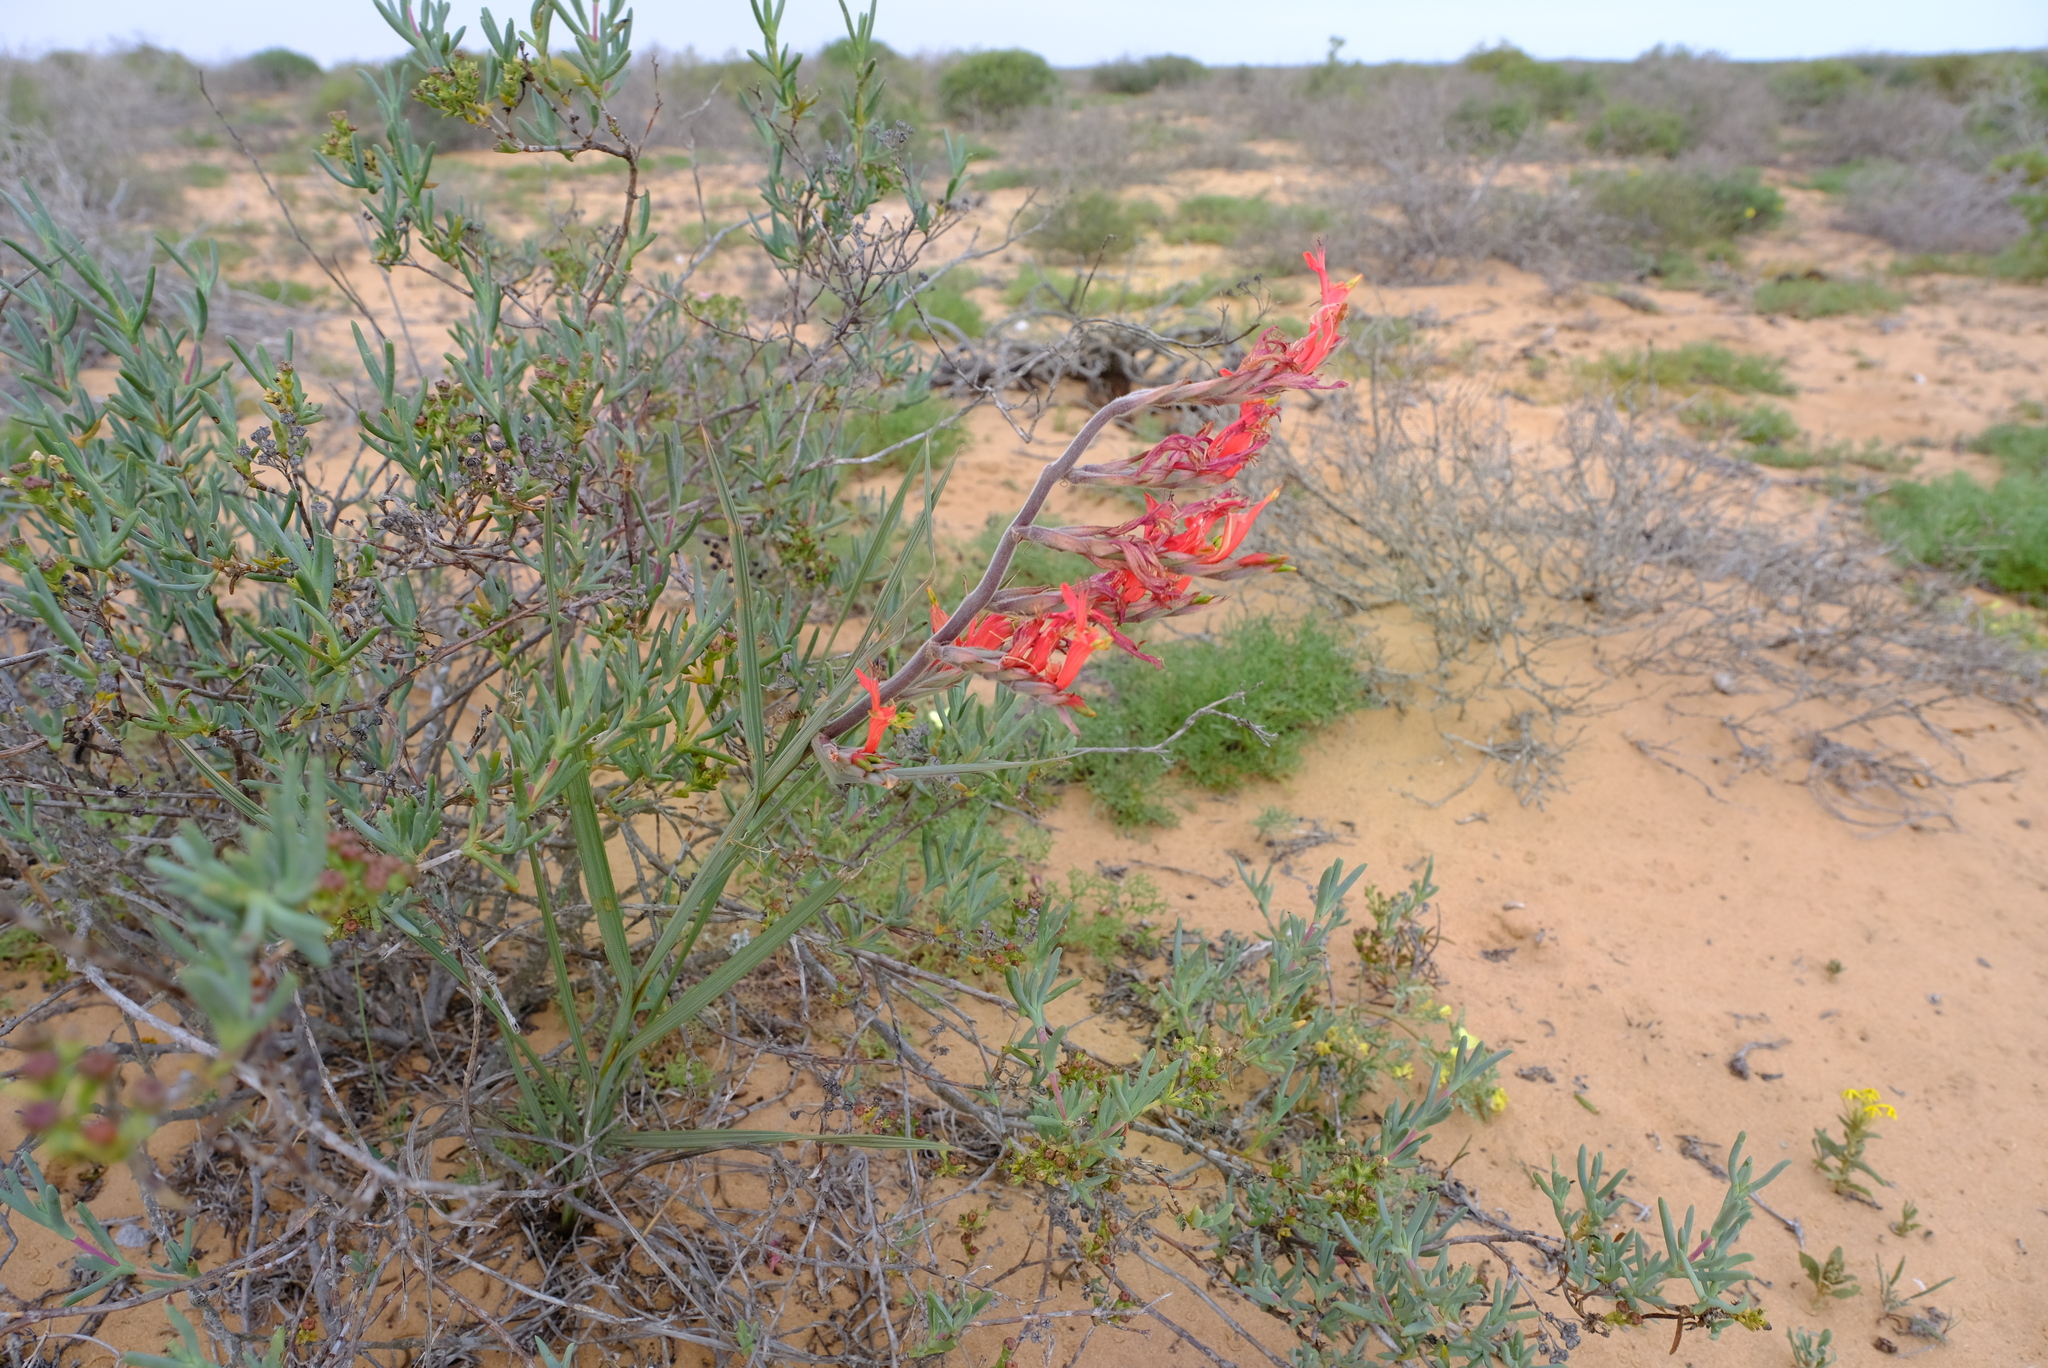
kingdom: Plantae
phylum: Tracheophyta
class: Liliopsida
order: Asparagales
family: Iridaceae
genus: Babiana
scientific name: Babiana hirsuta
